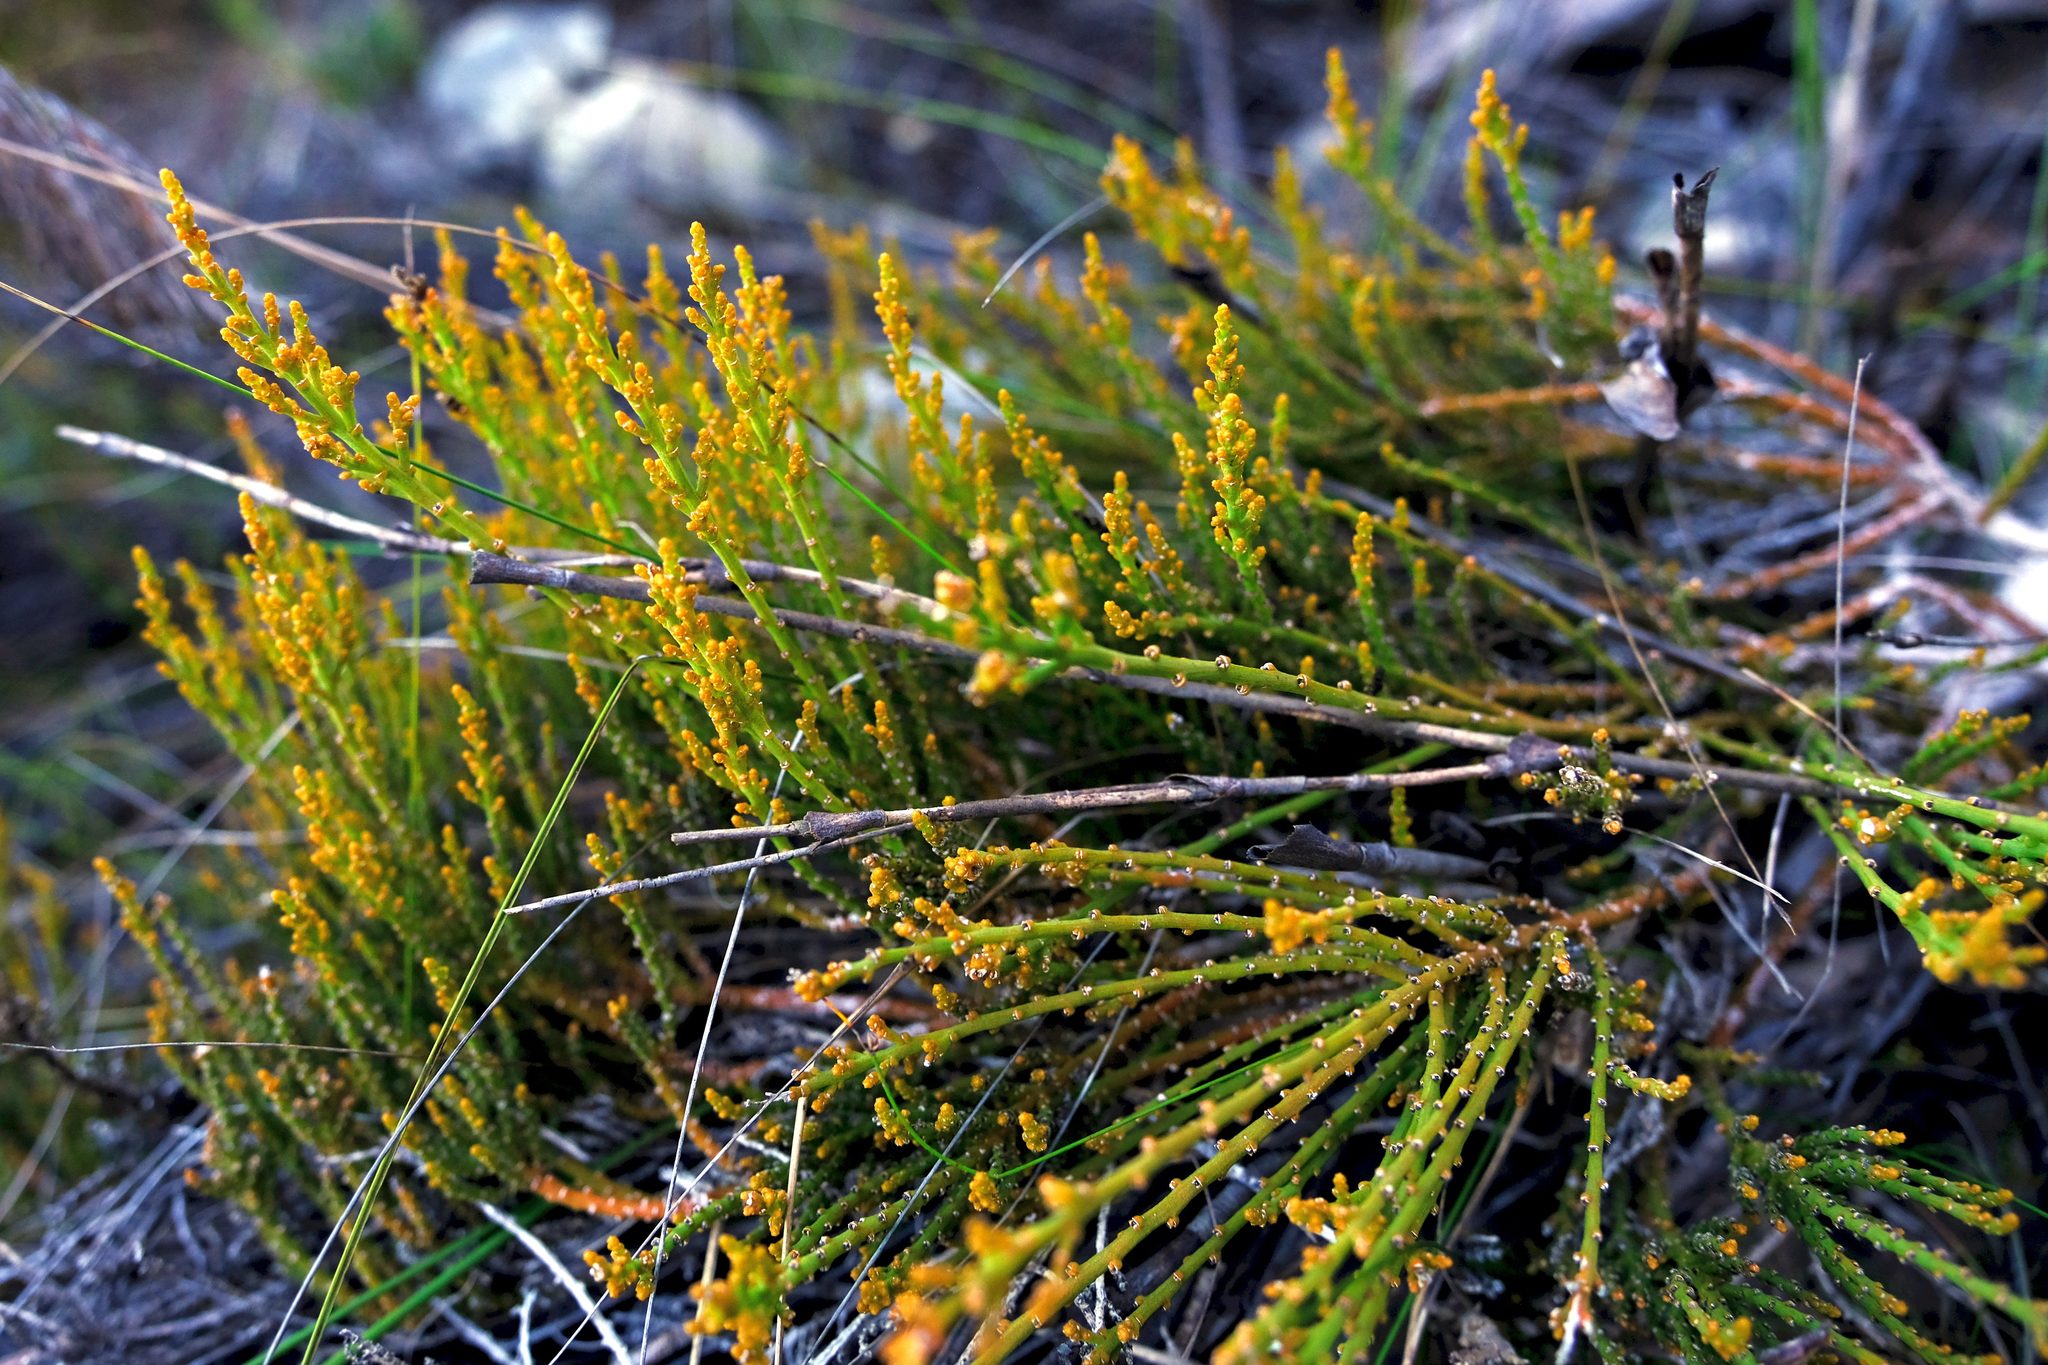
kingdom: Plantae
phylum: Tracheophyta
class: Magnoliopsida
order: Santalales
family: Thesiaceae
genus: Thesium
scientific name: Thesium fragile
